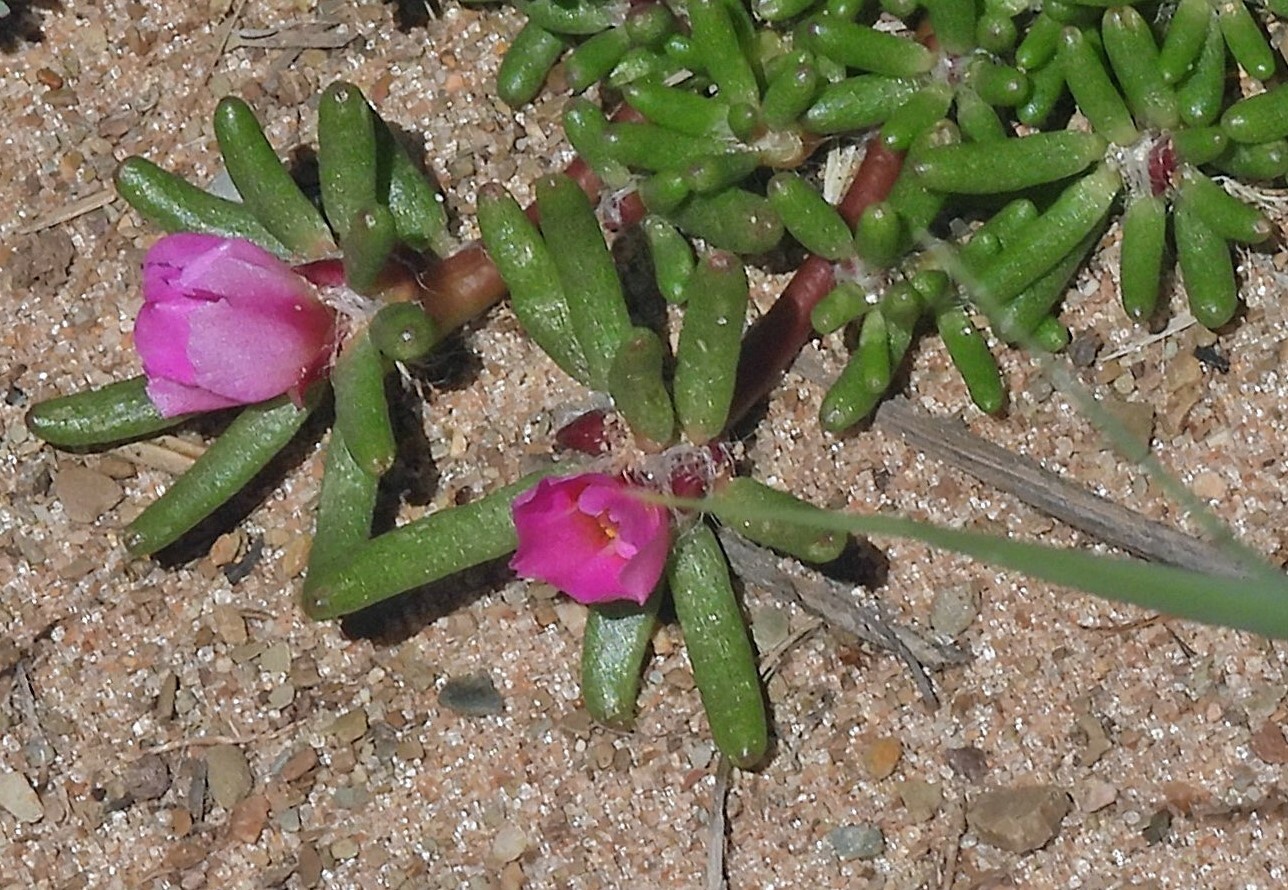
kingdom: Plantae
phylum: Tracheophyta
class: Magnoliopsida
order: Caryophyllales
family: Portulacaceae
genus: Portulaca
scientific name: Portulaca pilosa
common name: Kiss me quick
